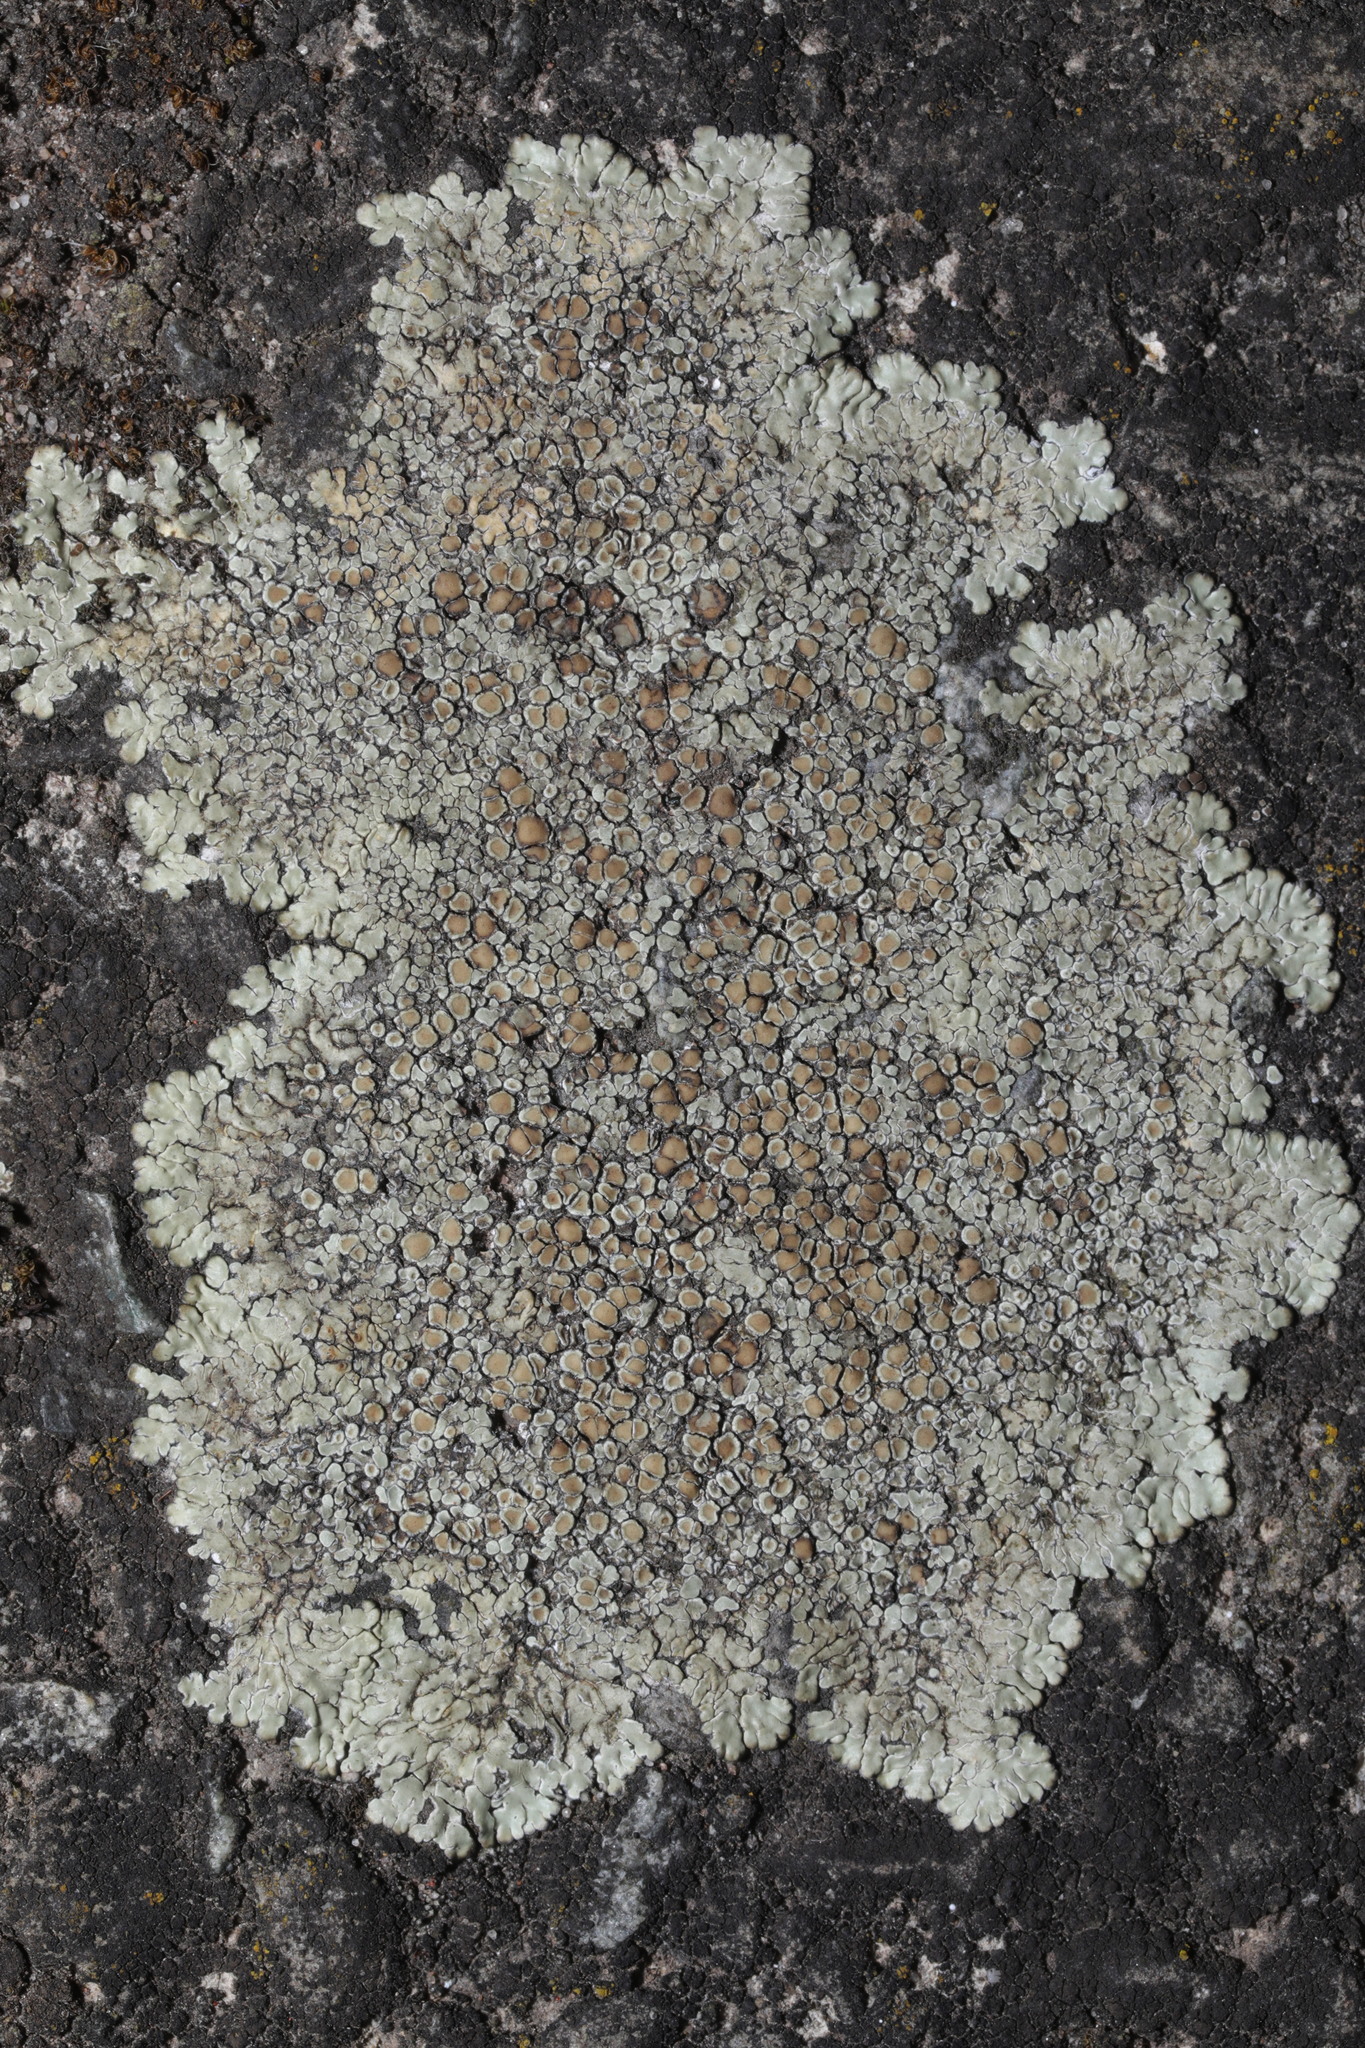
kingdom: Fungi
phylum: Ascomycota
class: Lecanoromycetes
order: Lecanorales
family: Lecanoraceae
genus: Protoparmeliopsis
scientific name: Protoparmeliopsis muralis
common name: Stonewall rim lichen
